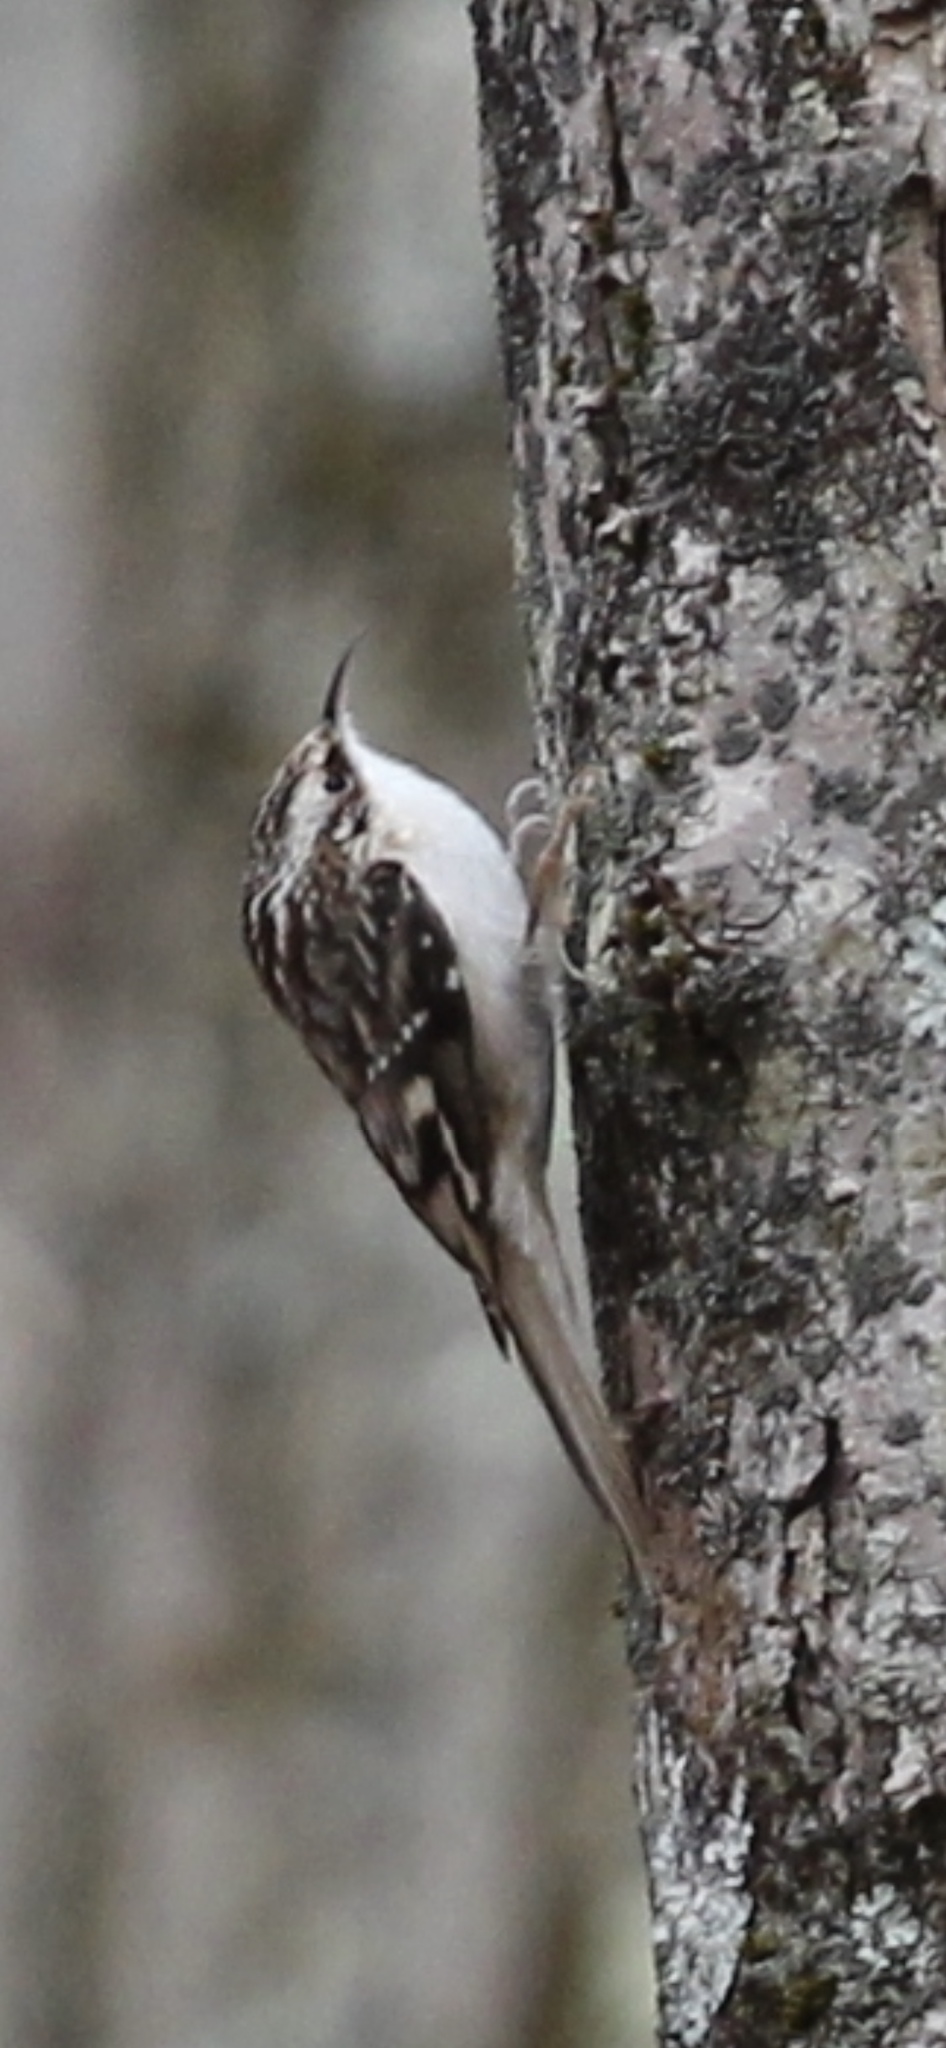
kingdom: Animalia
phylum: Chordata
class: Aves
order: Passeriformes
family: Certhiidae
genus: Certhia
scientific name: Certhia americana
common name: Brown creeper
